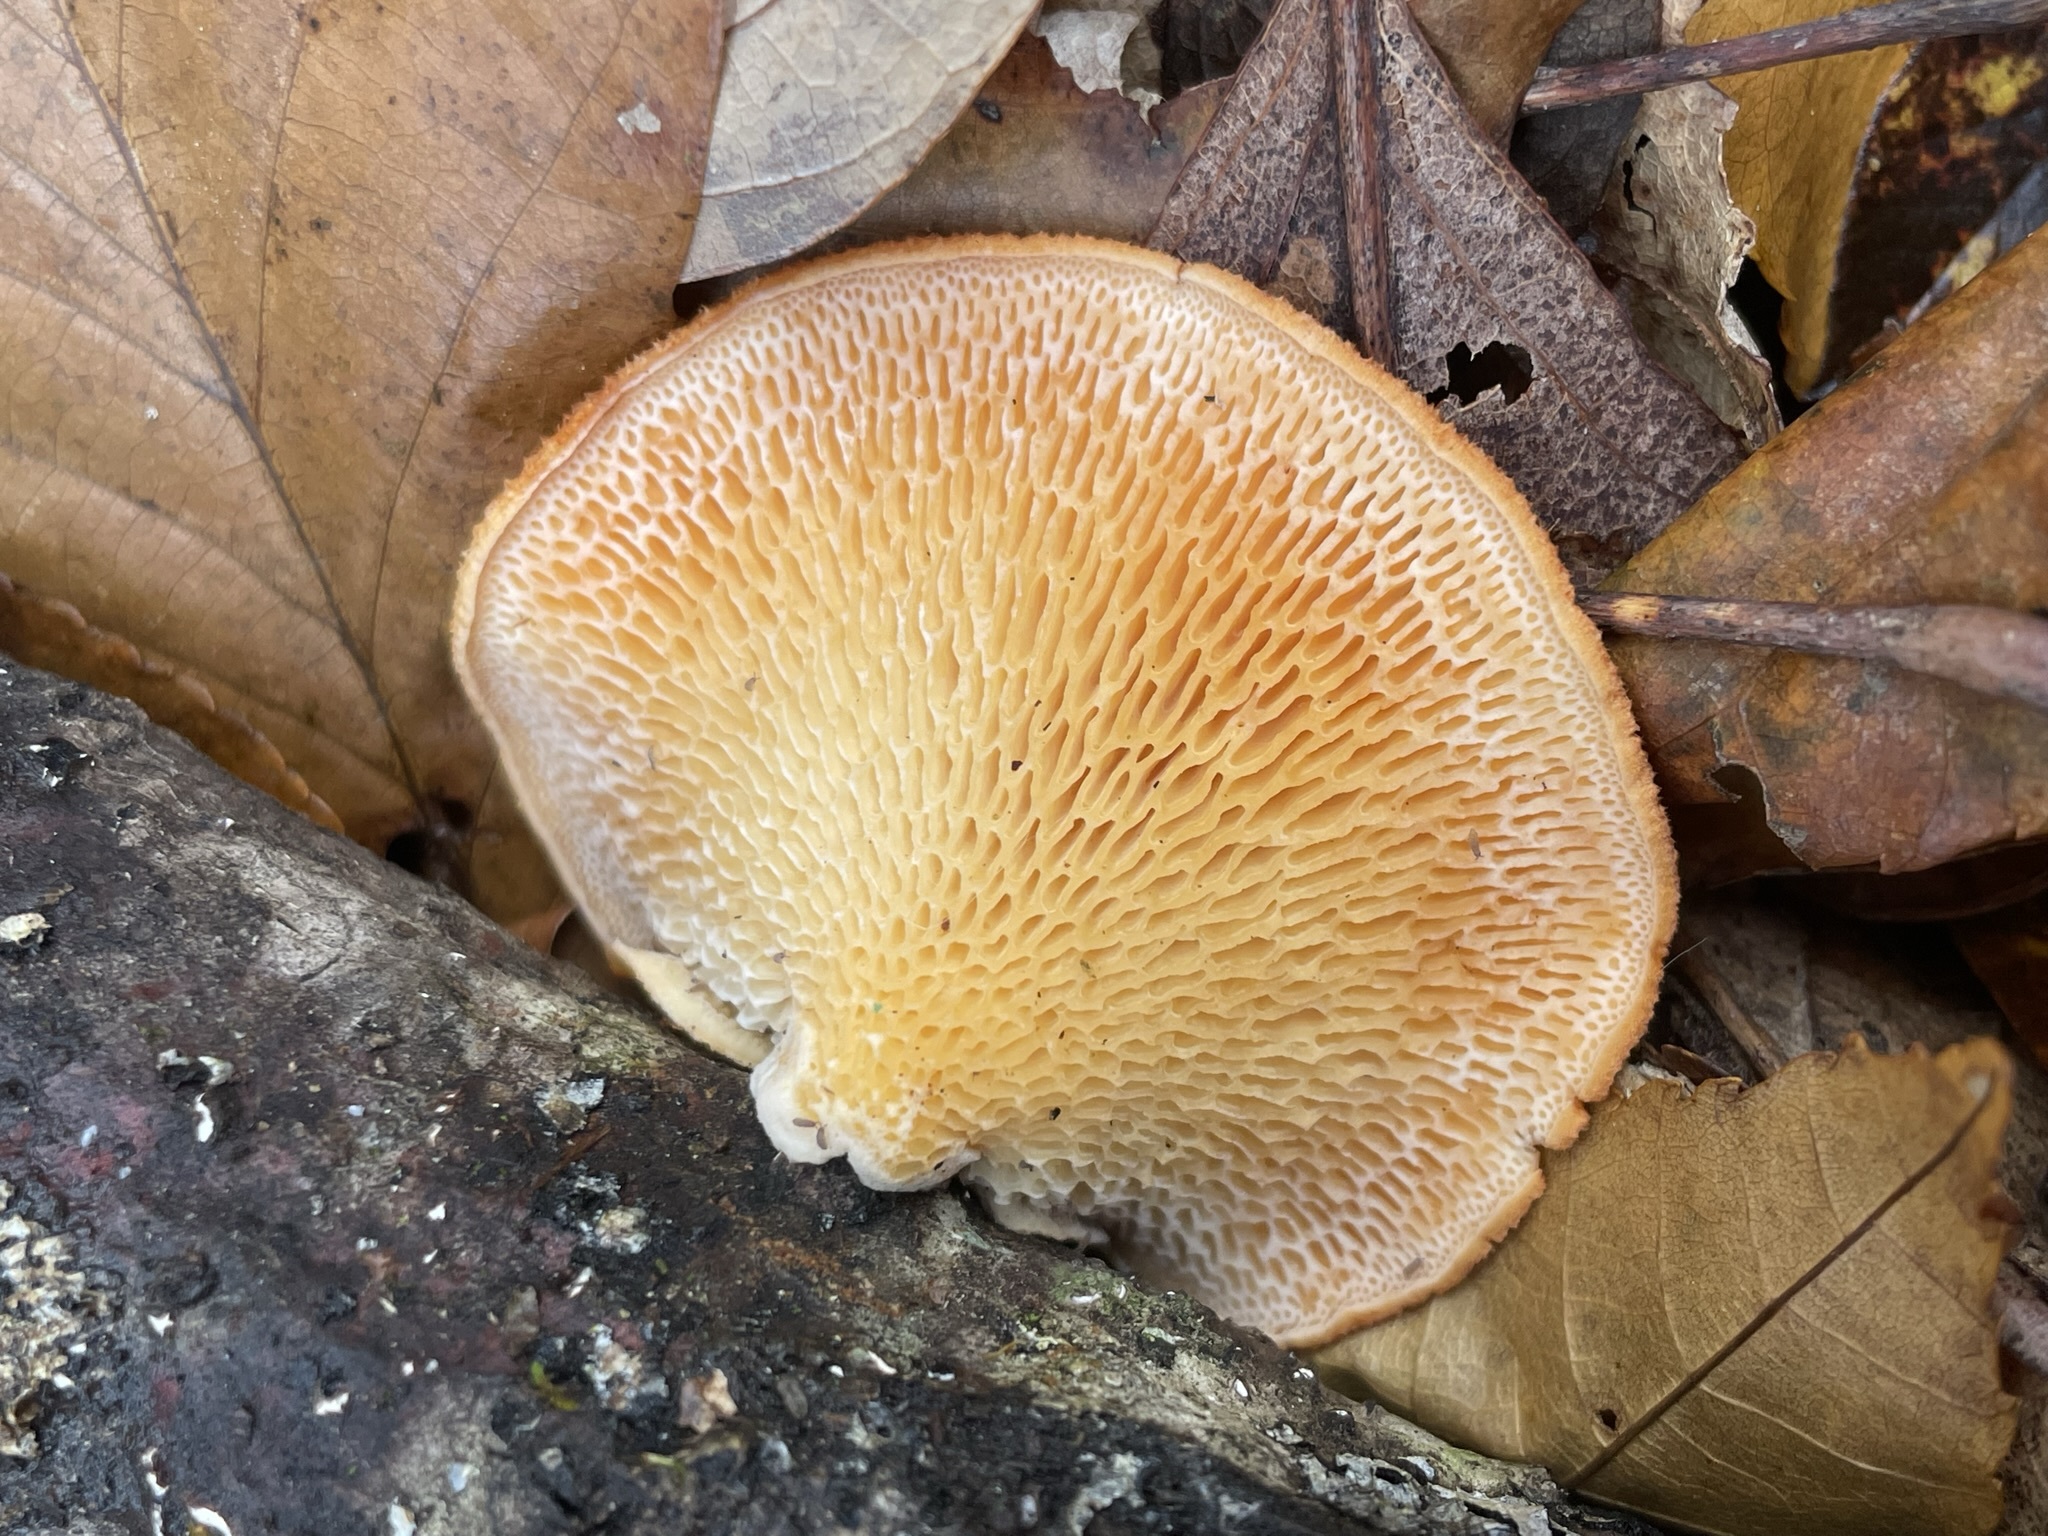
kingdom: Fungi
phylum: Basidiomycota
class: Agaricomycetes
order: Polyporales
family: Polyporaceae
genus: Neofavolus
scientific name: Neofavolus alveolaris
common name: Hexagonal-pored polypore
